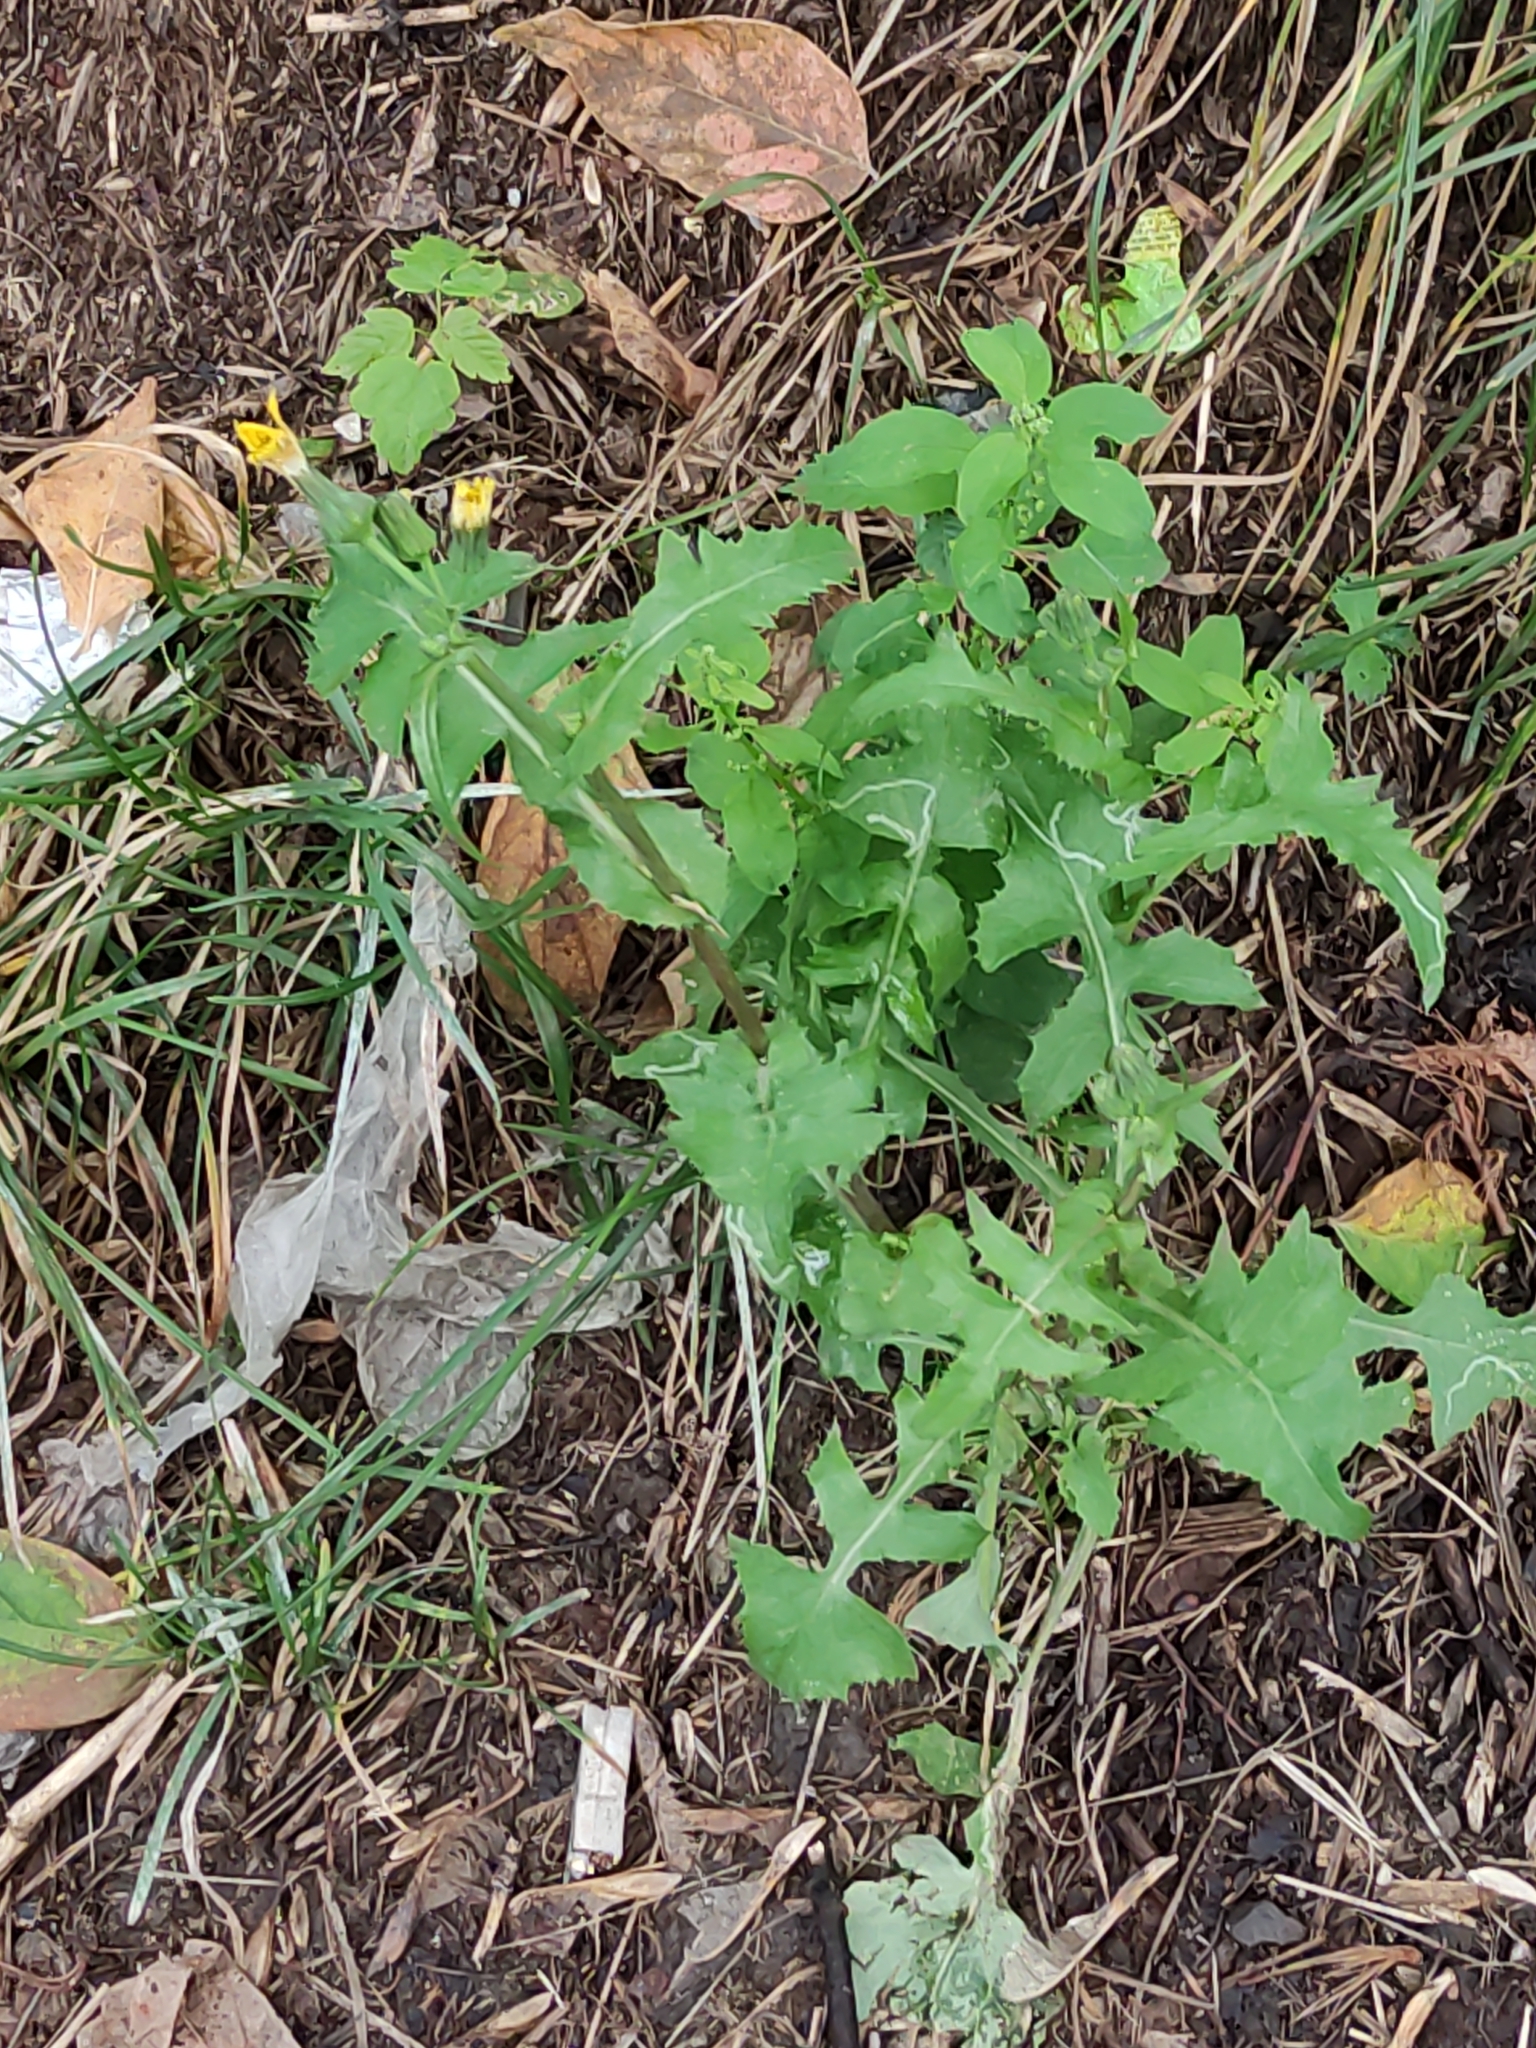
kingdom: Plantae
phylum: Tracheophyta
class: Magnoliopsida
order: Asterales
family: Asteraceae
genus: Sonchus
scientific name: Sonchus oleraceus
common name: Common sowthistle
